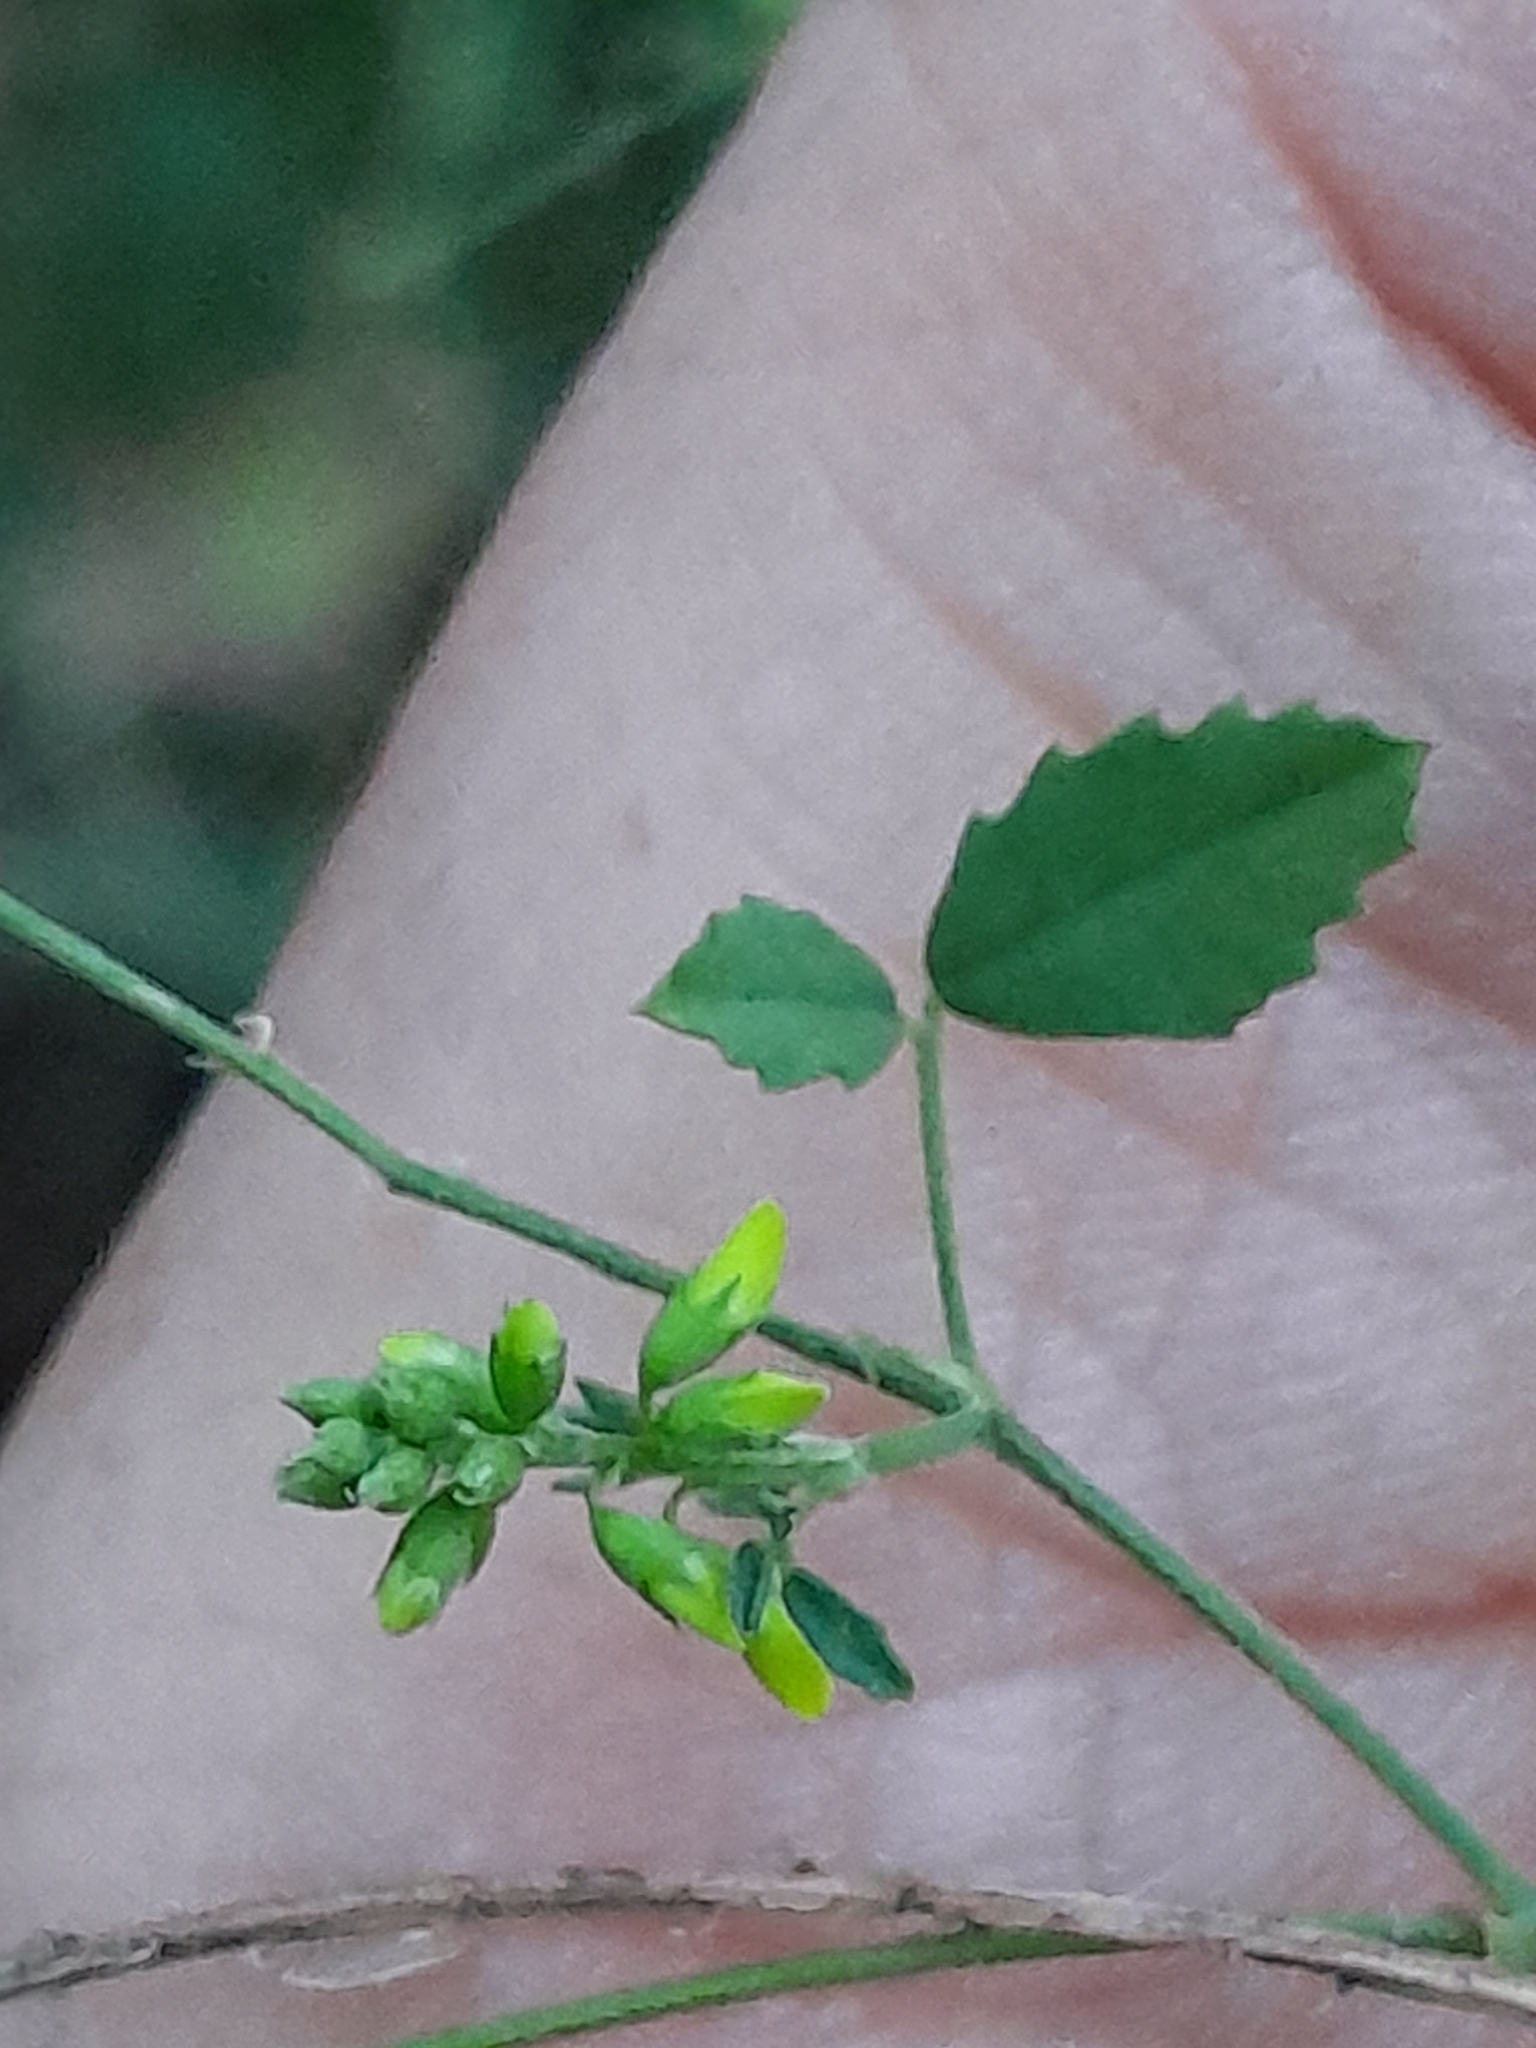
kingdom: Plantae
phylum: Tracheophyta
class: Magnoliopsida
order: Fabales
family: Fabaceae
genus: Melilotus
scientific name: Melilotus officinalis
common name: Sweetclover
